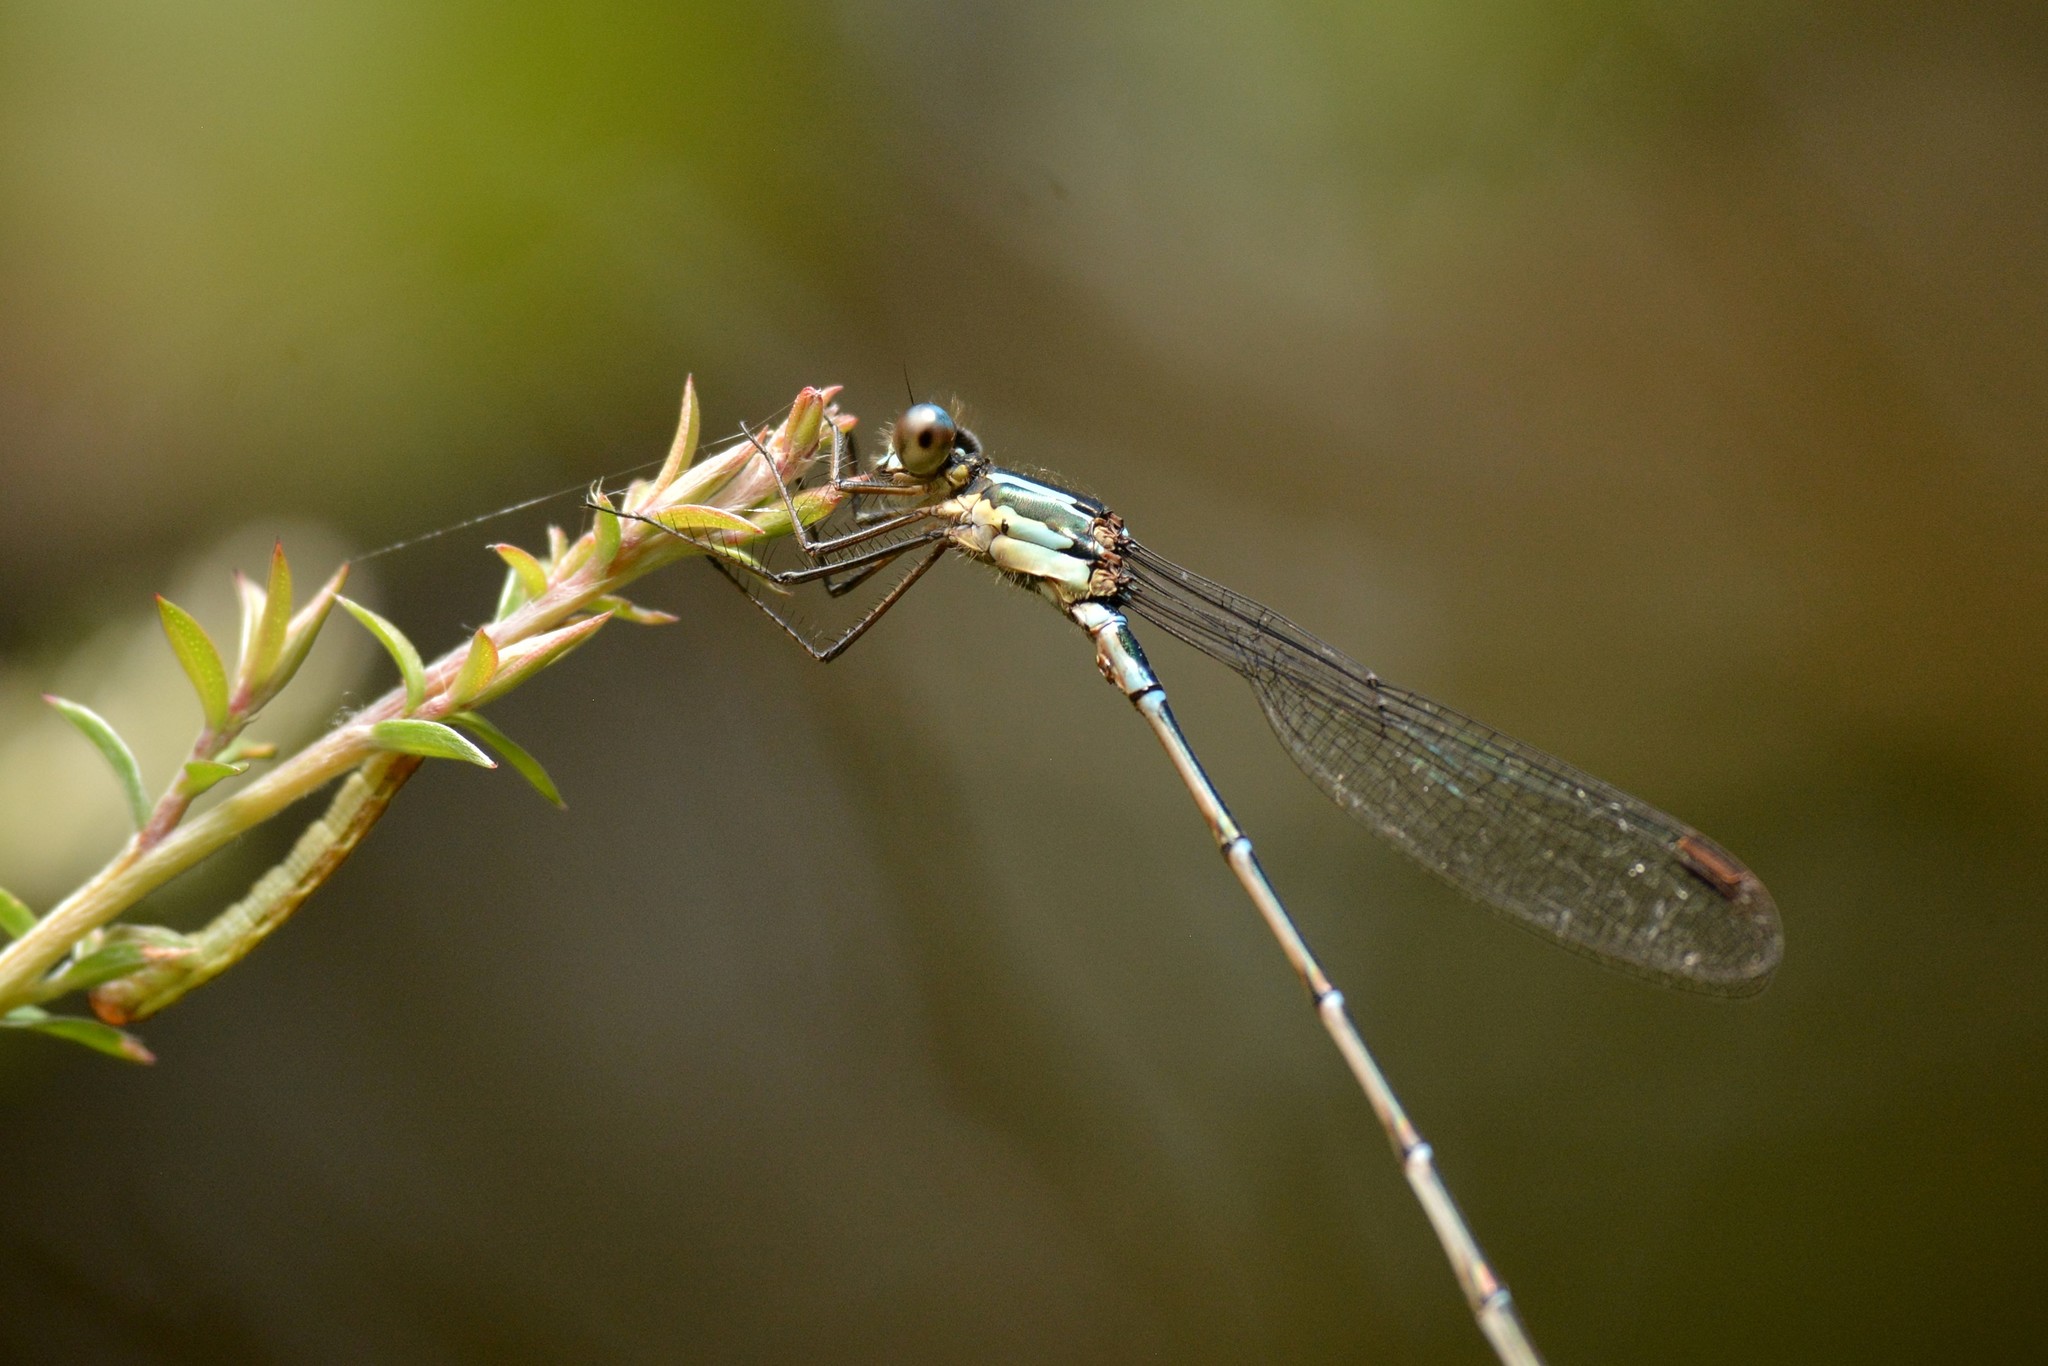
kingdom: Animalia
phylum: Arthropoda
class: Insecta
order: Odonata
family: Lestidae
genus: Austrolestes
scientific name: Austrolestes colensonis
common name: Blue damselfly
